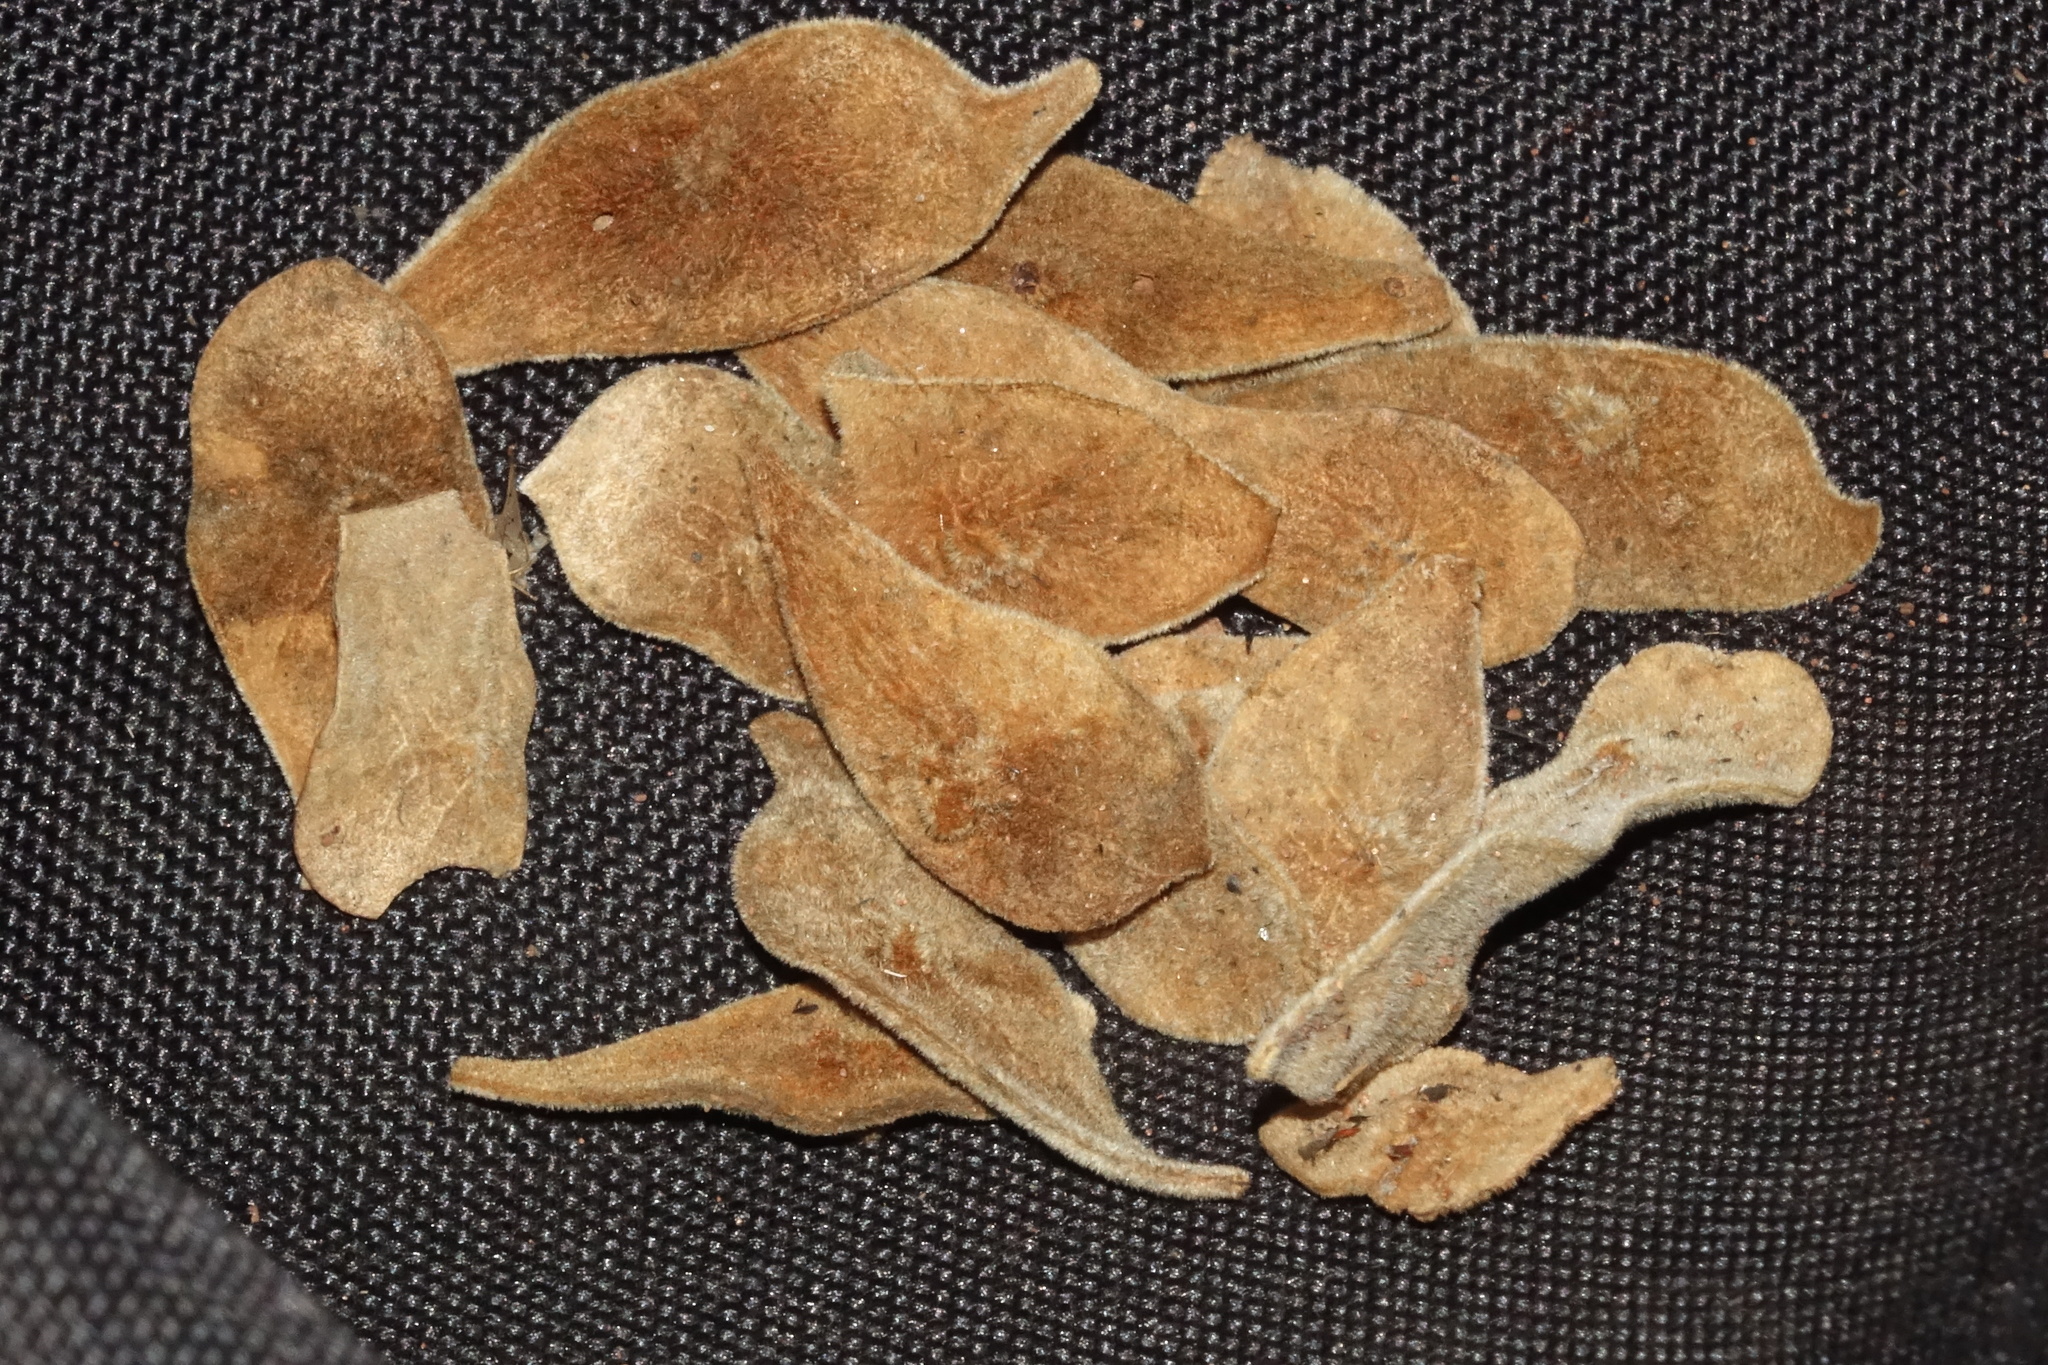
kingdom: Plantae
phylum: Tracheophyta
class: Magnoliopsida
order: Fabales
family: Fabaceae
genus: Dalbergia
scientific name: Dalbergia trichocarpa
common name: Rosewood
